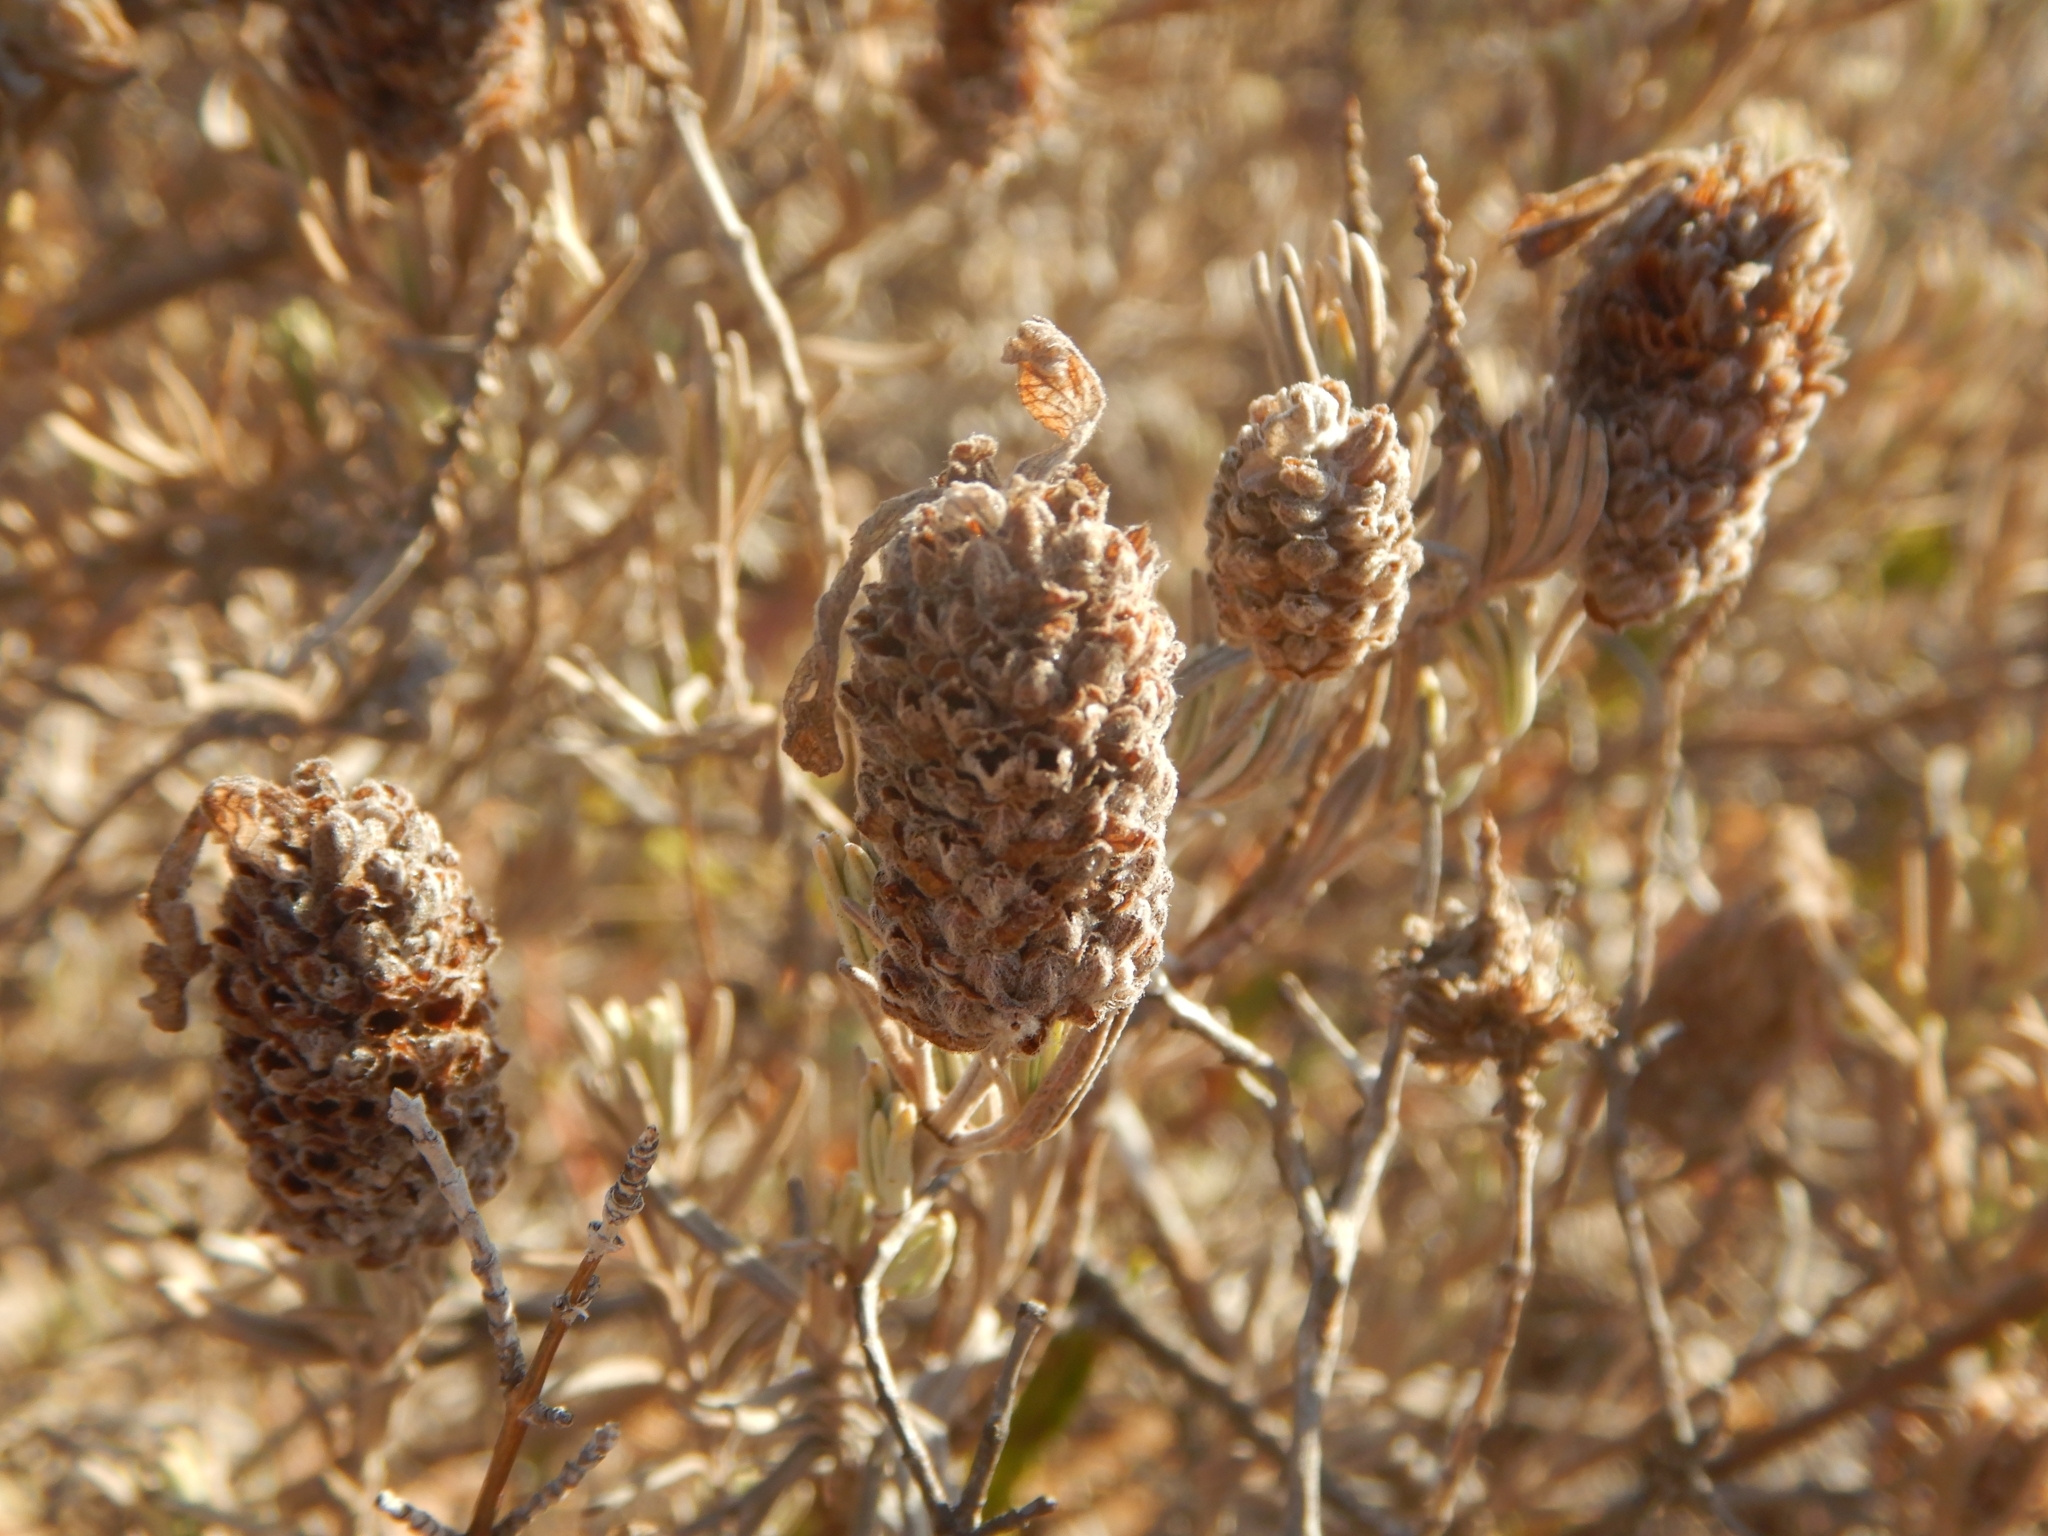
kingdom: Plantae
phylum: Tracheophyta
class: Magnoliopsida
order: Lamiales
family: Lamiaceae
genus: Lavandula
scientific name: Lavandula stoechas
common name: French lavender
